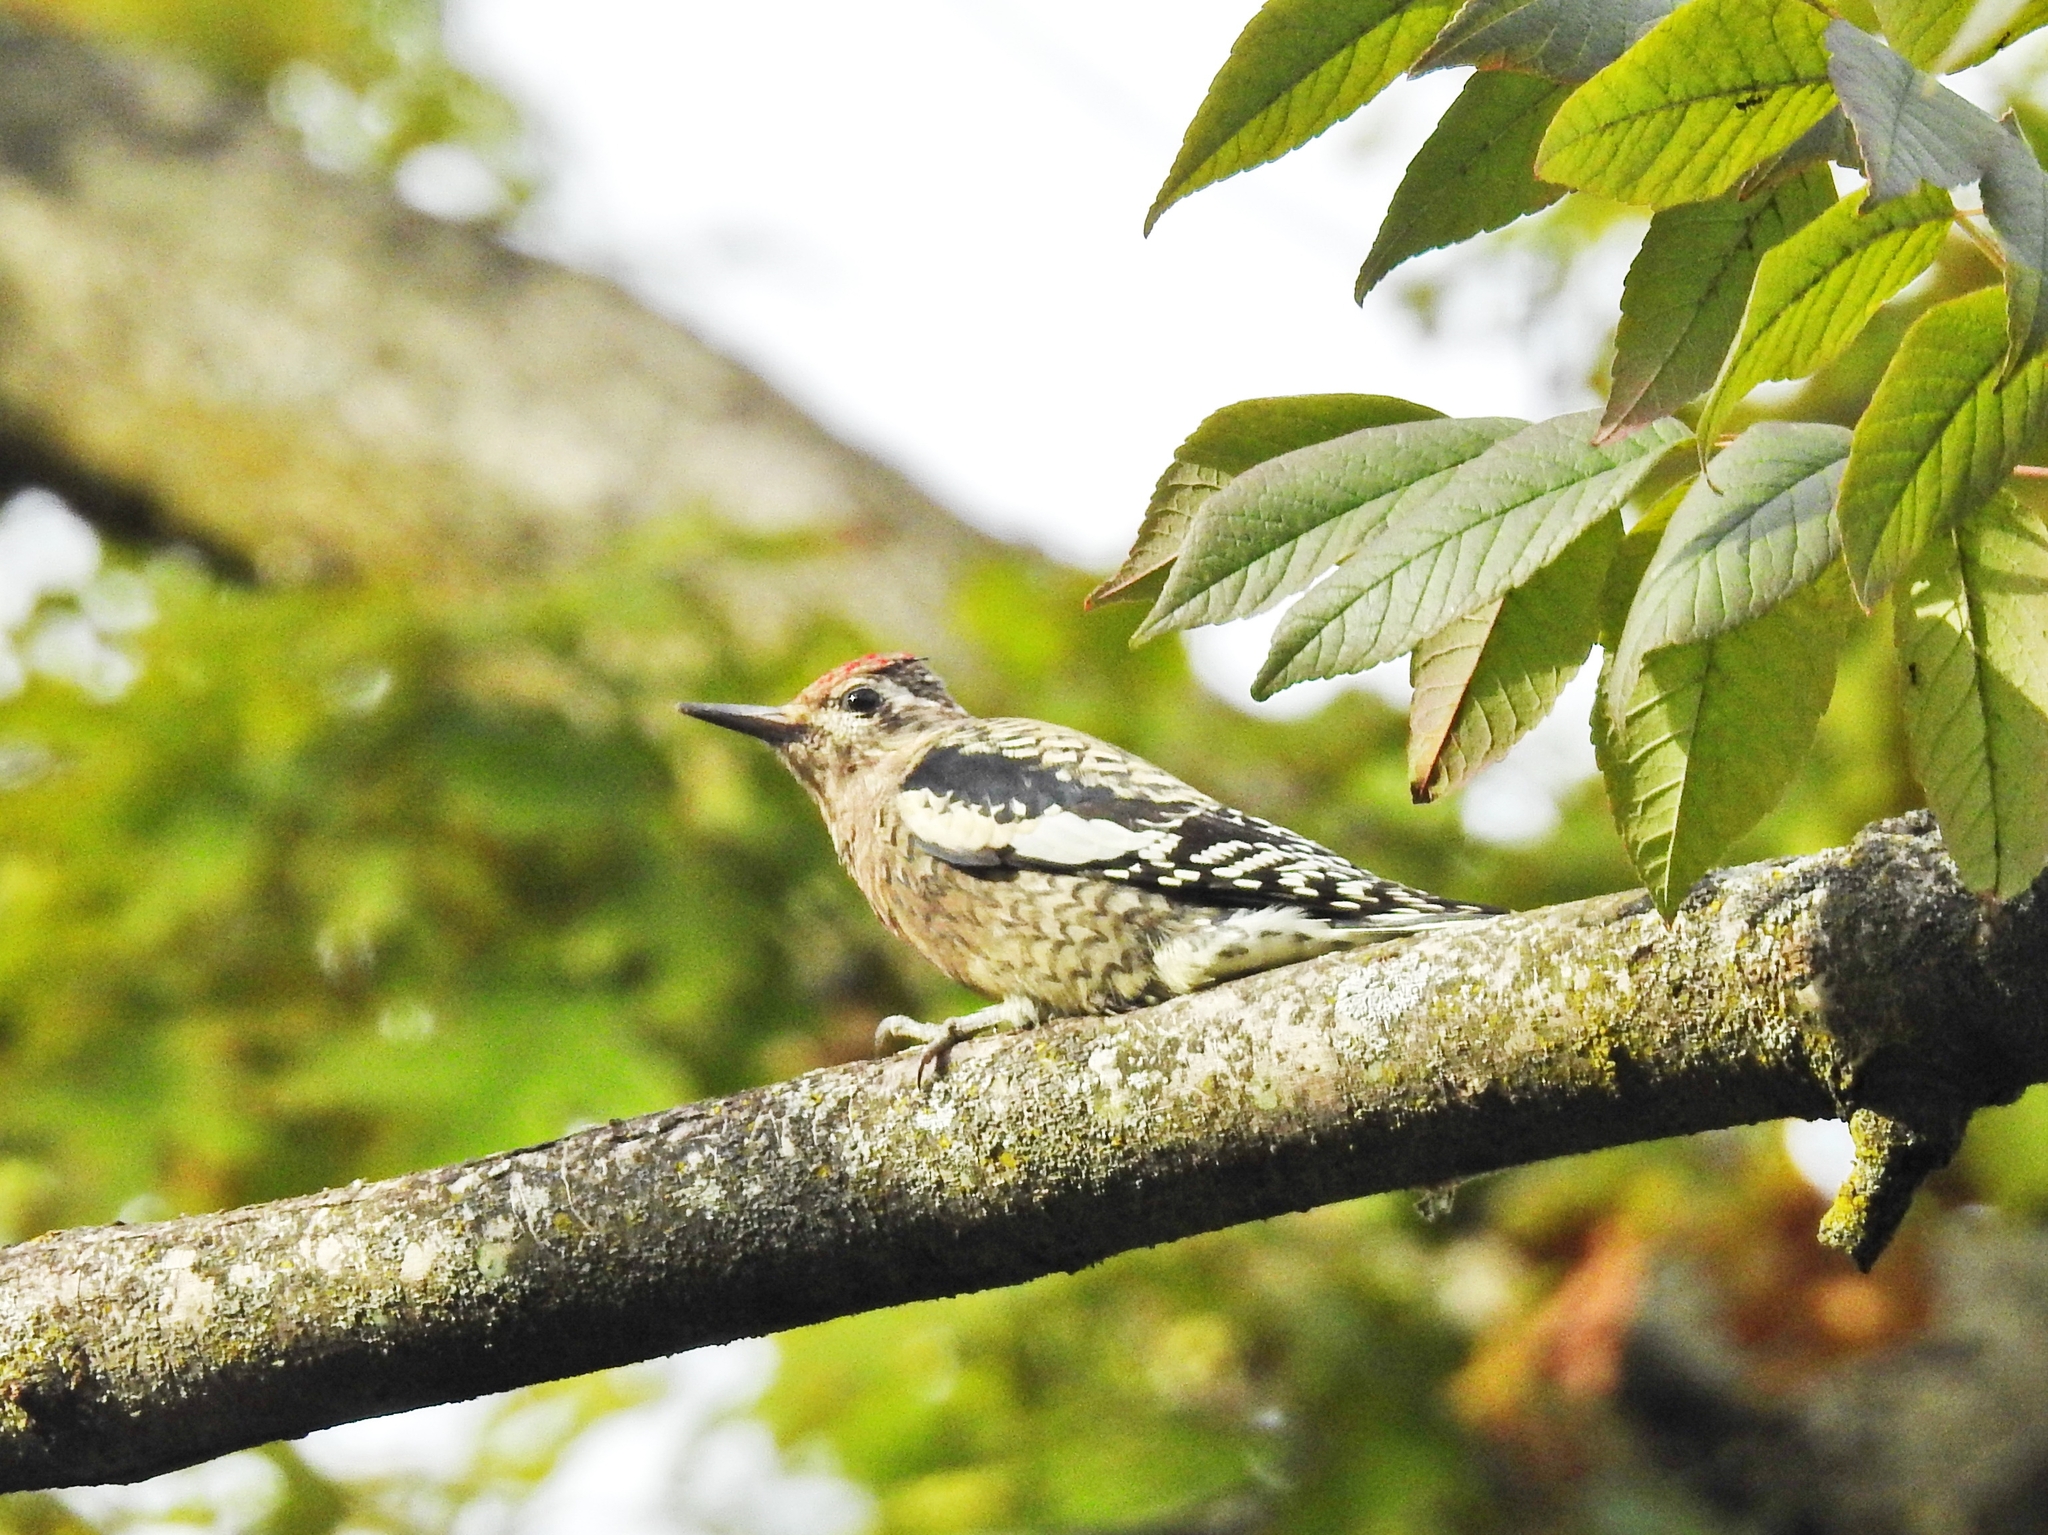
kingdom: Animalia
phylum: Chordata
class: Aves
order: Piciformes
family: Picidae
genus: Sphyrapicus
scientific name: Sphyrapicus varius
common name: Yellow-bellied sapsucker
